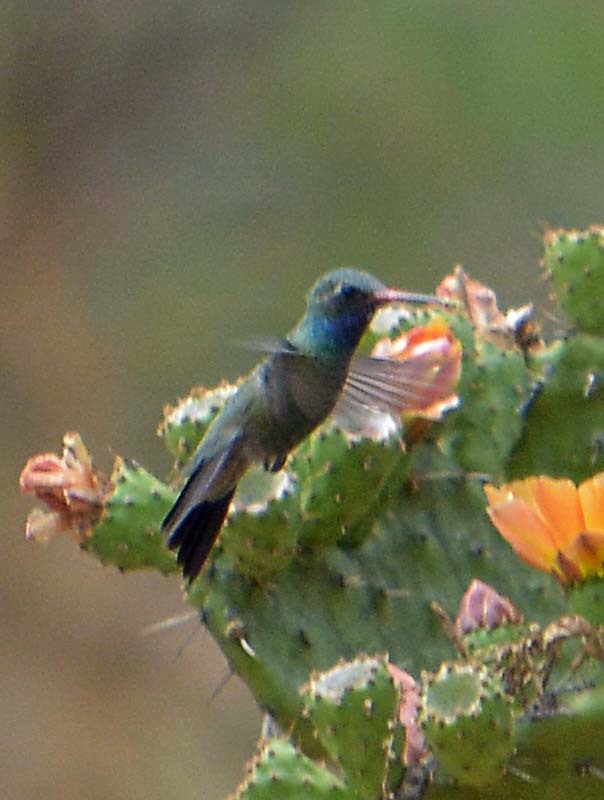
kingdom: Animalia
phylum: Chordata
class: Aves
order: Apodiformes
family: Trochilidae
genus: Cynanthus
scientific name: Cynanthus latirostris
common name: Broad-billed hummingbird
